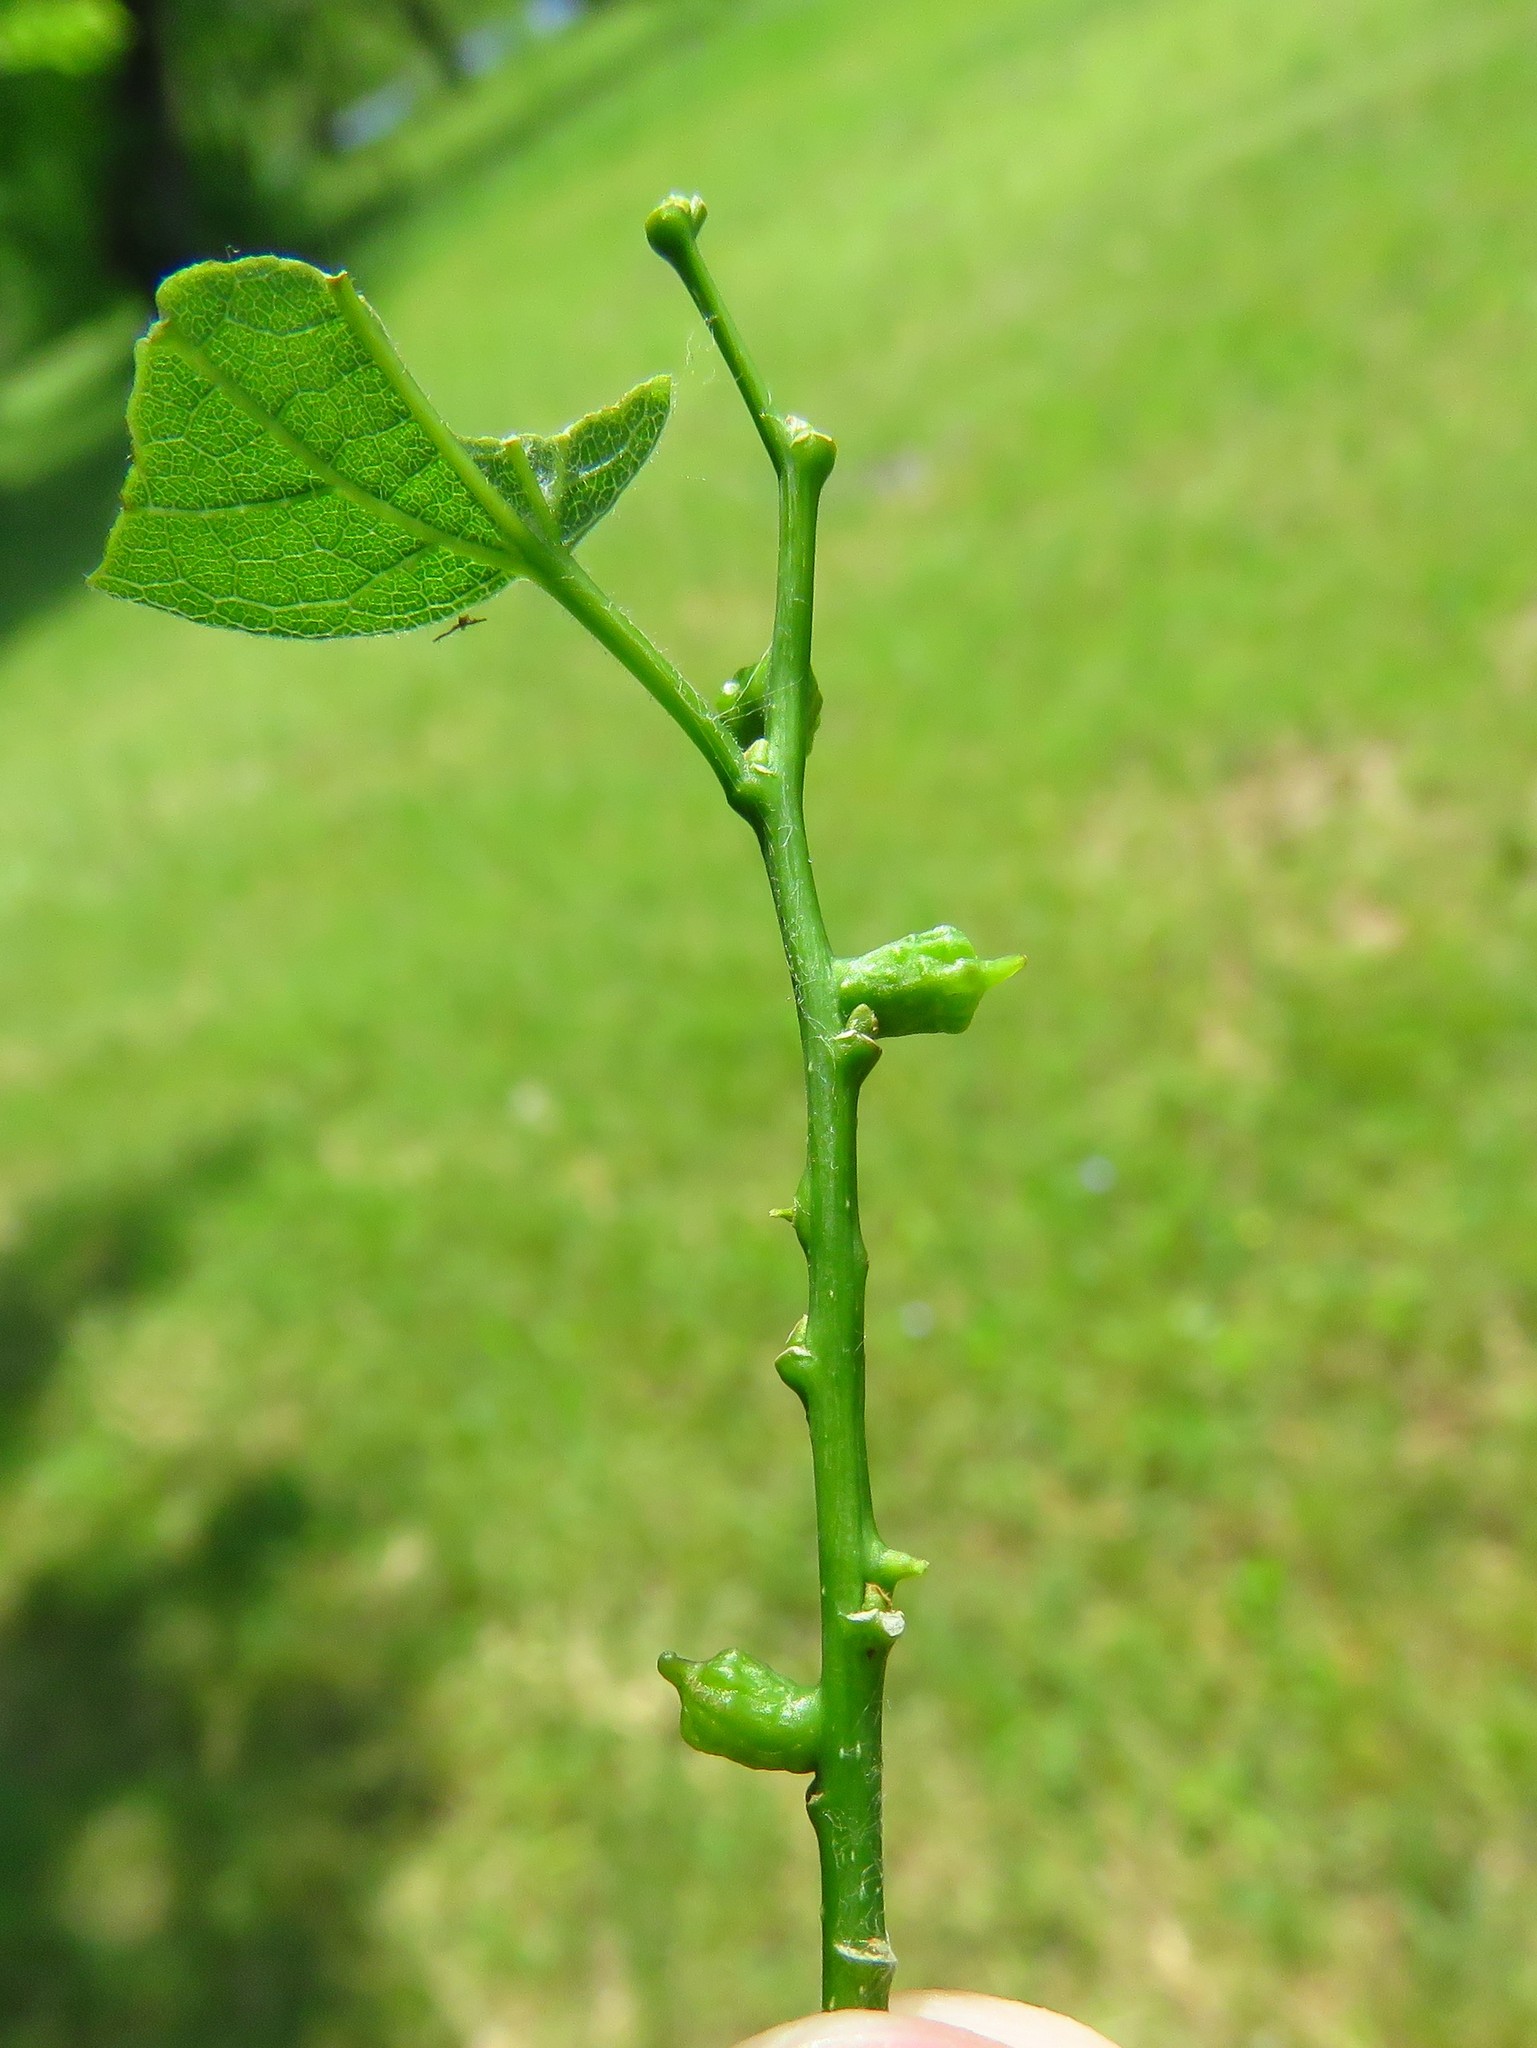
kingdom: Animalia
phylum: Arthropoda
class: Insecta
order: Diptera
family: Cecidomyiidae
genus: Celticecis
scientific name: Celticecis ramicola
